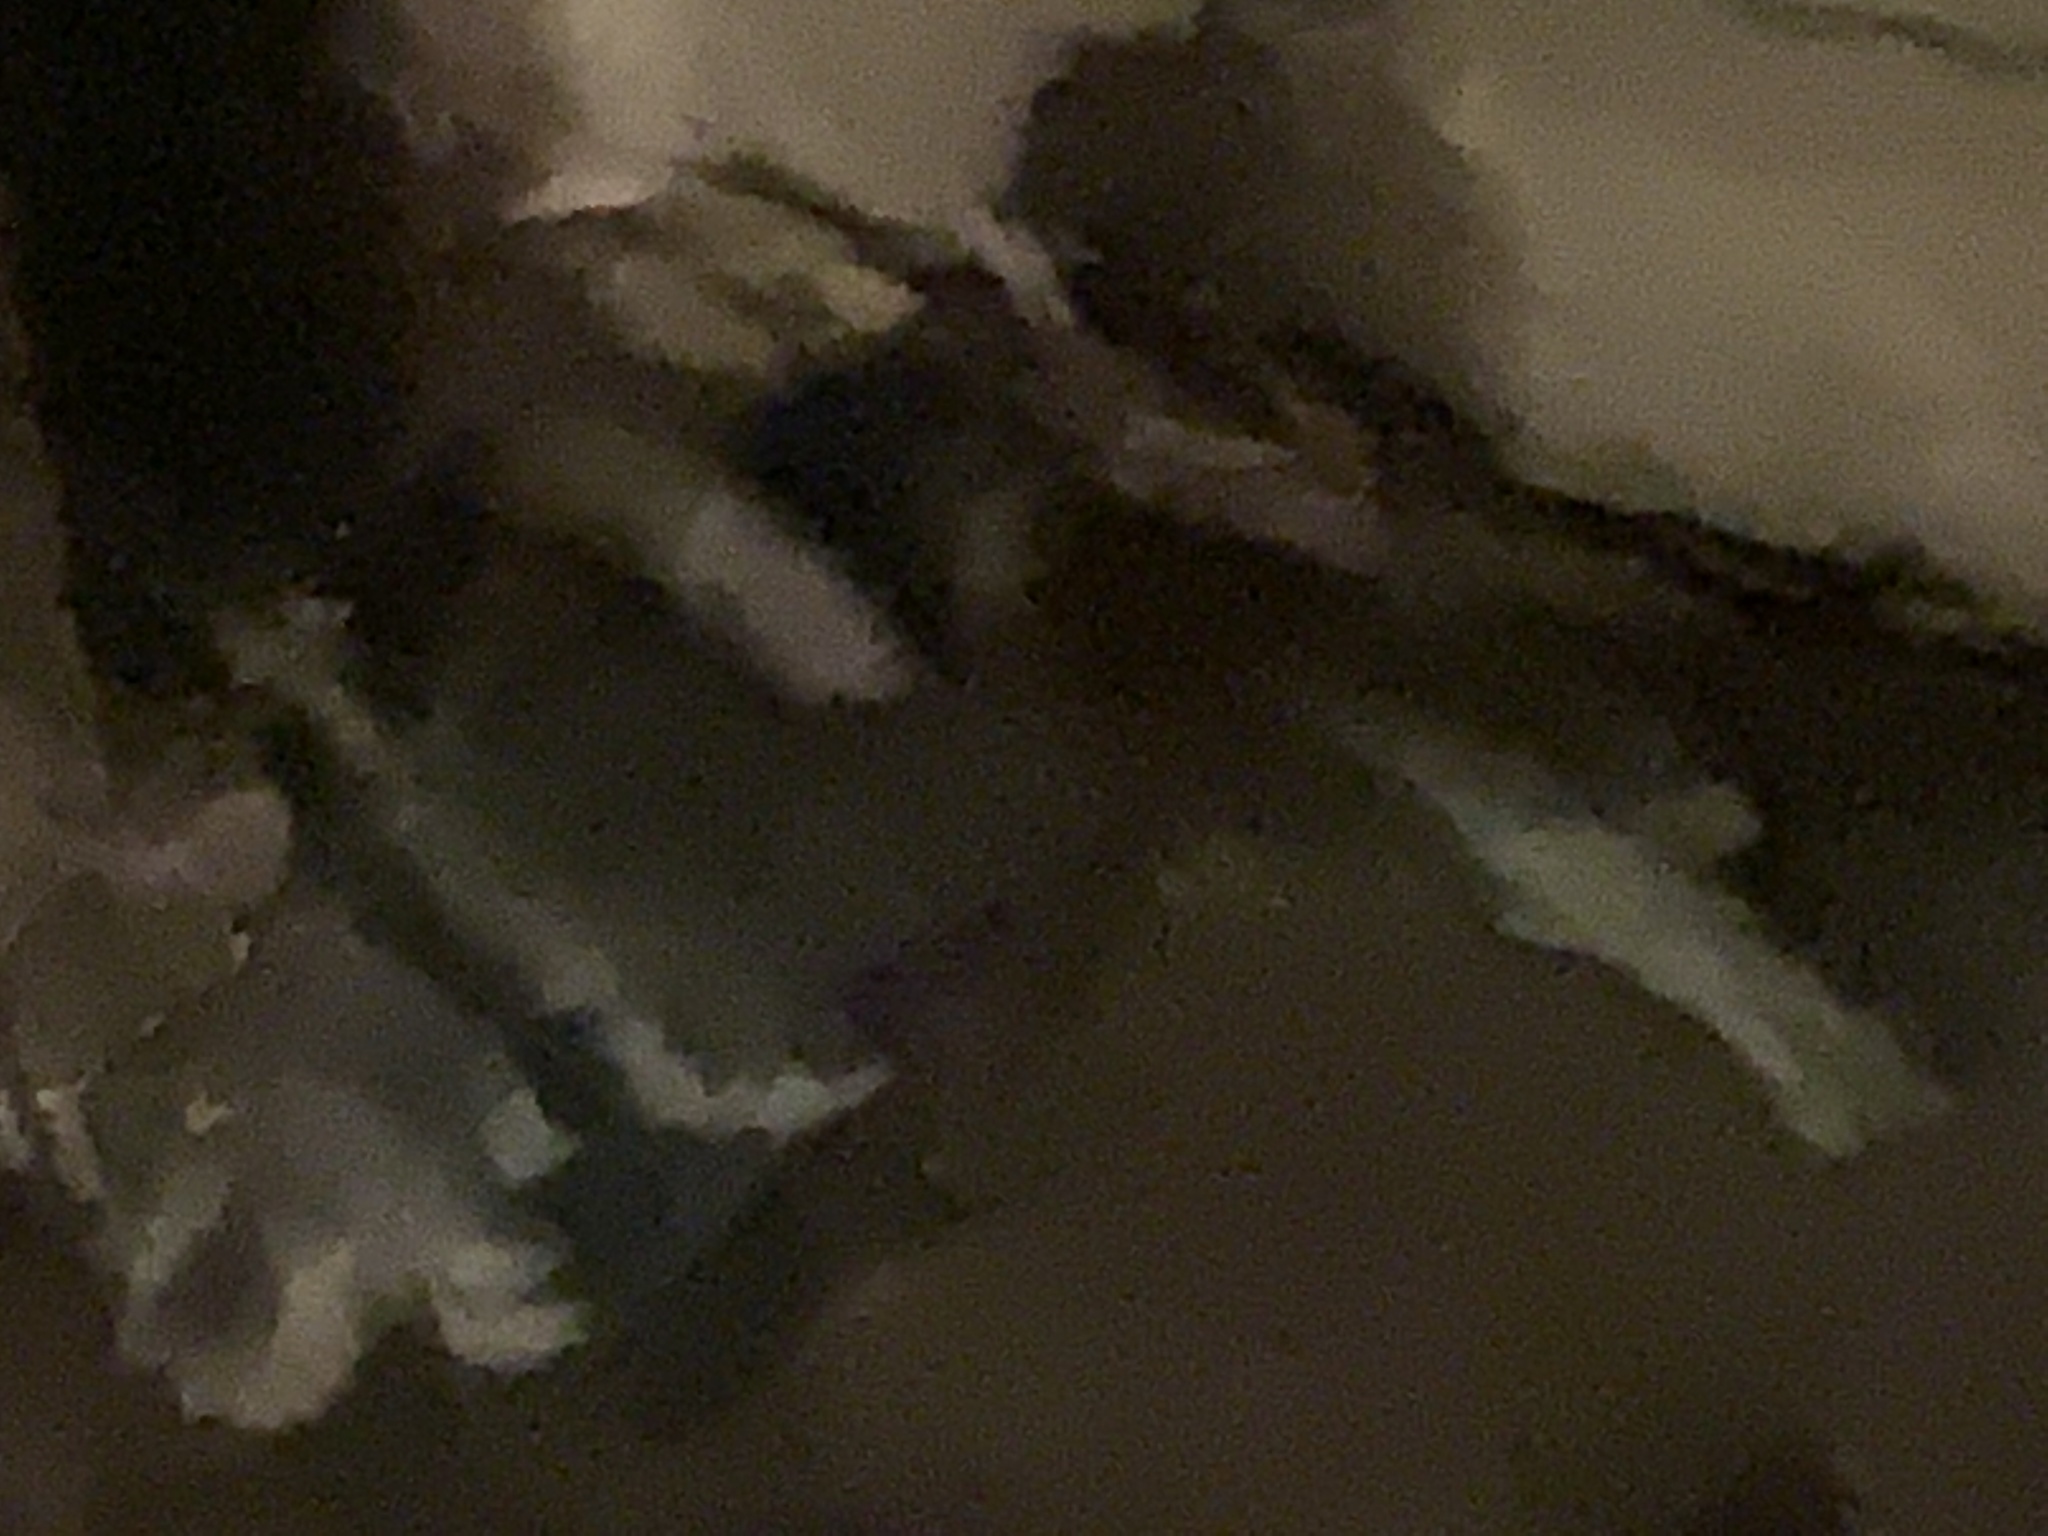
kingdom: Animalia
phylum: Chordata
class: Aves
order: Passeriformes
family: Corvidae
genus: Cyanocitta
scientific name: Cyanocitta cristata
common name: Blue jay
